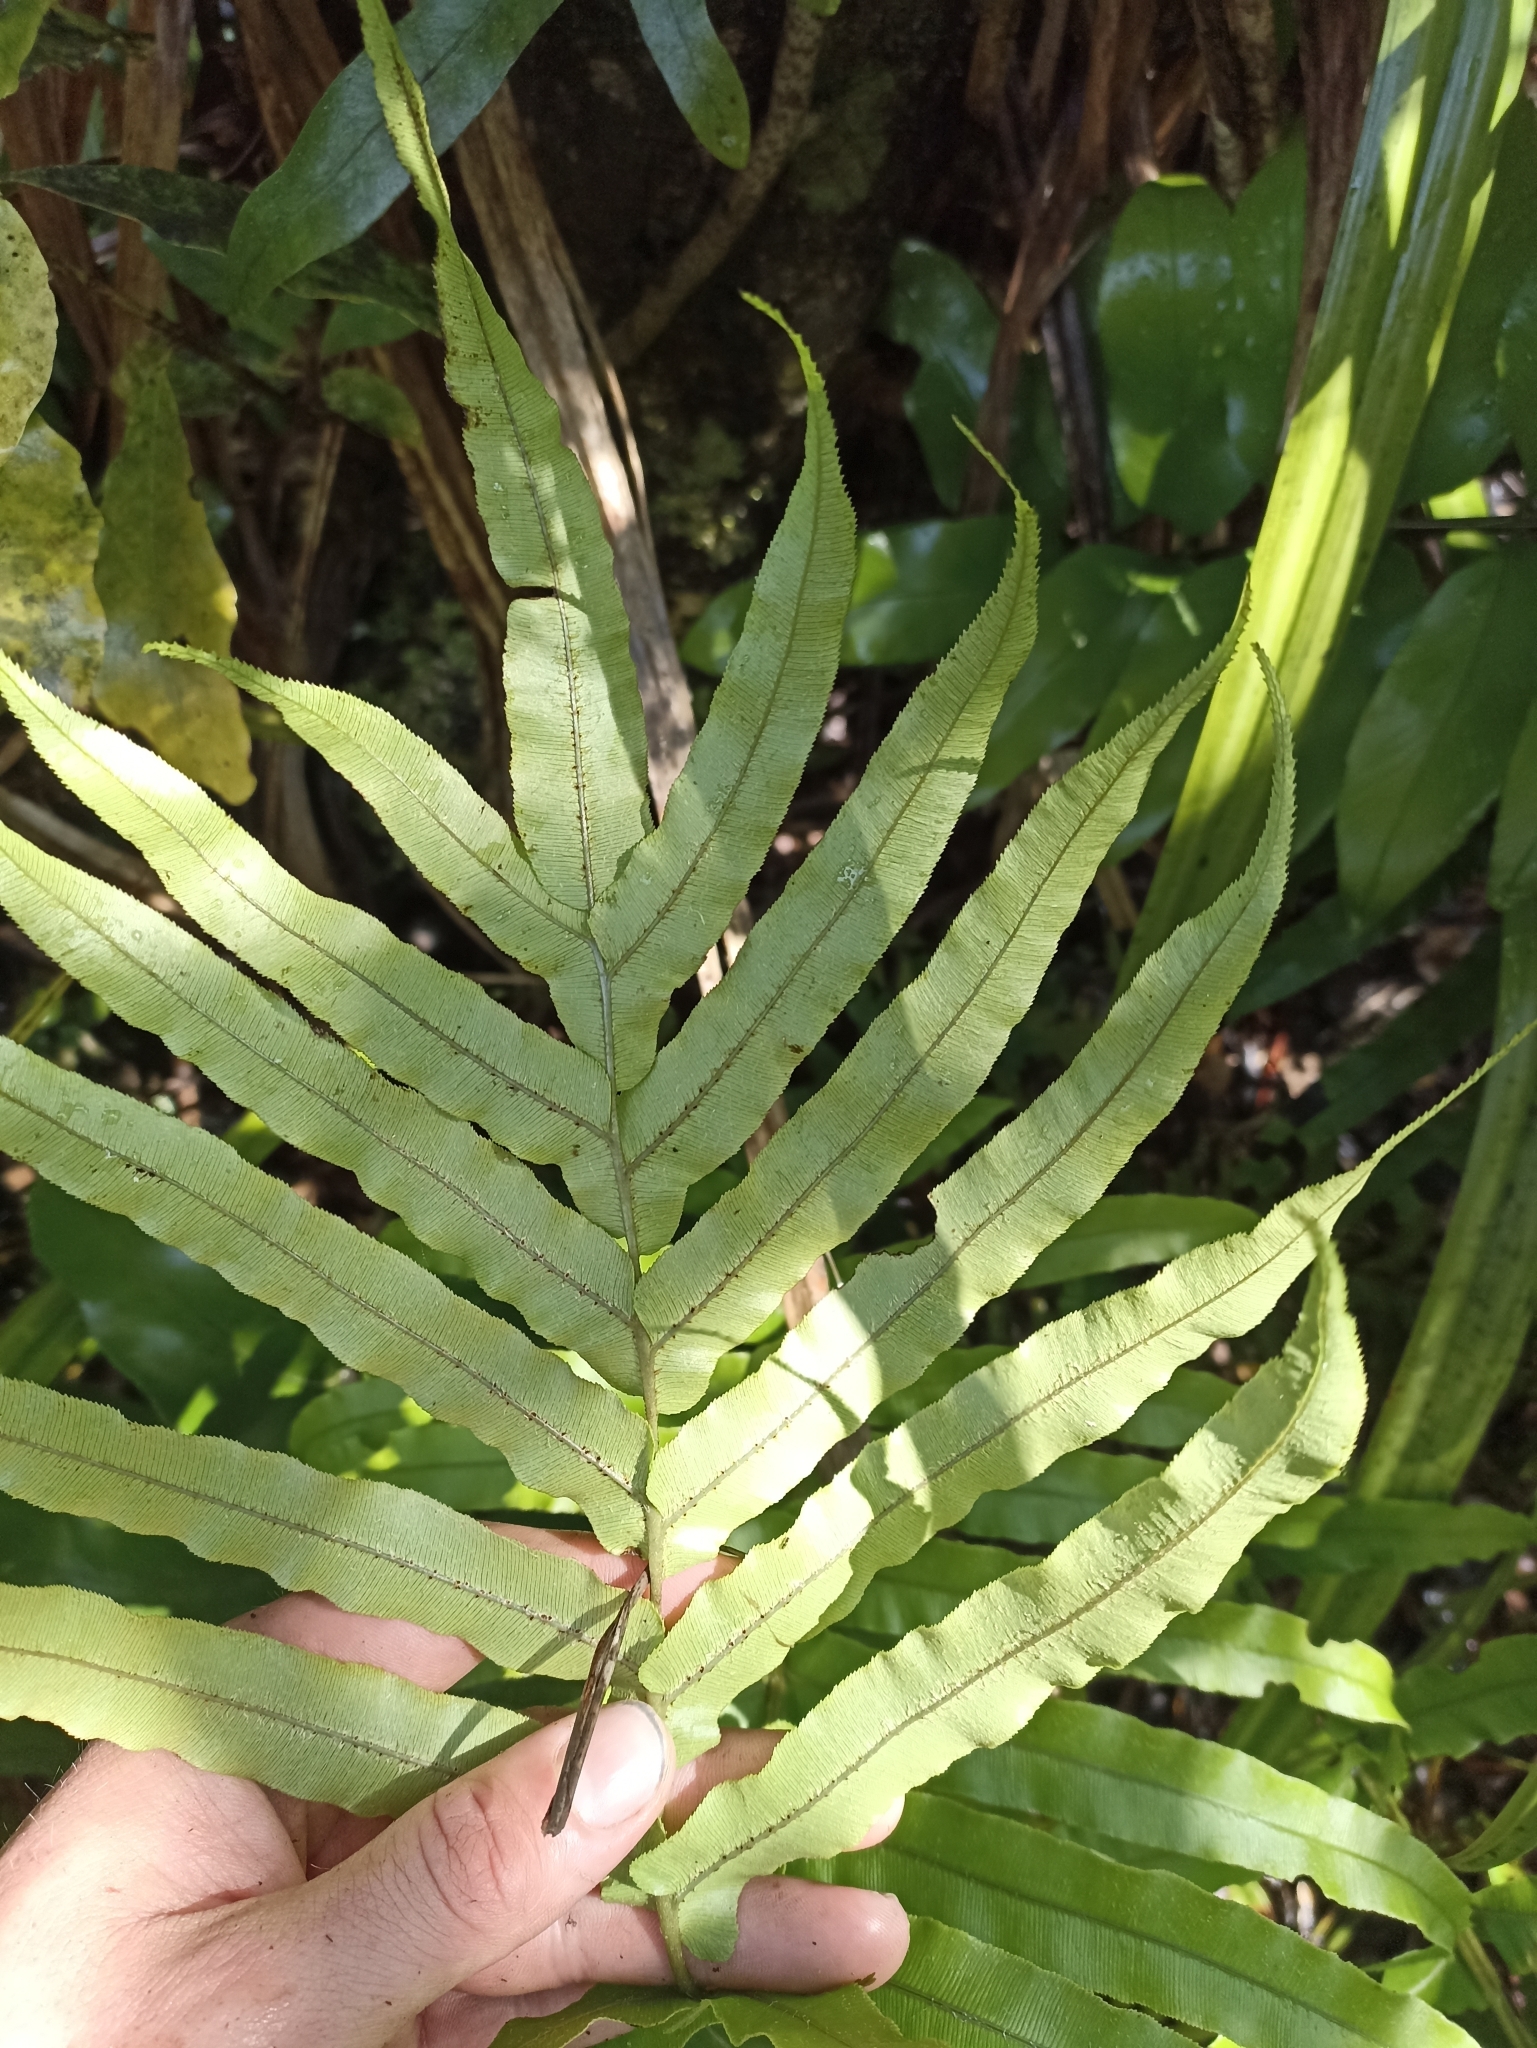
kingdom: Plantae
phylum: Tracheophyta
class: Polypodiopsida
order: Polypodiales
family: Blechnaceae
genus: Parablechnum
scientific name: Parablechnum novae-zelandiae
